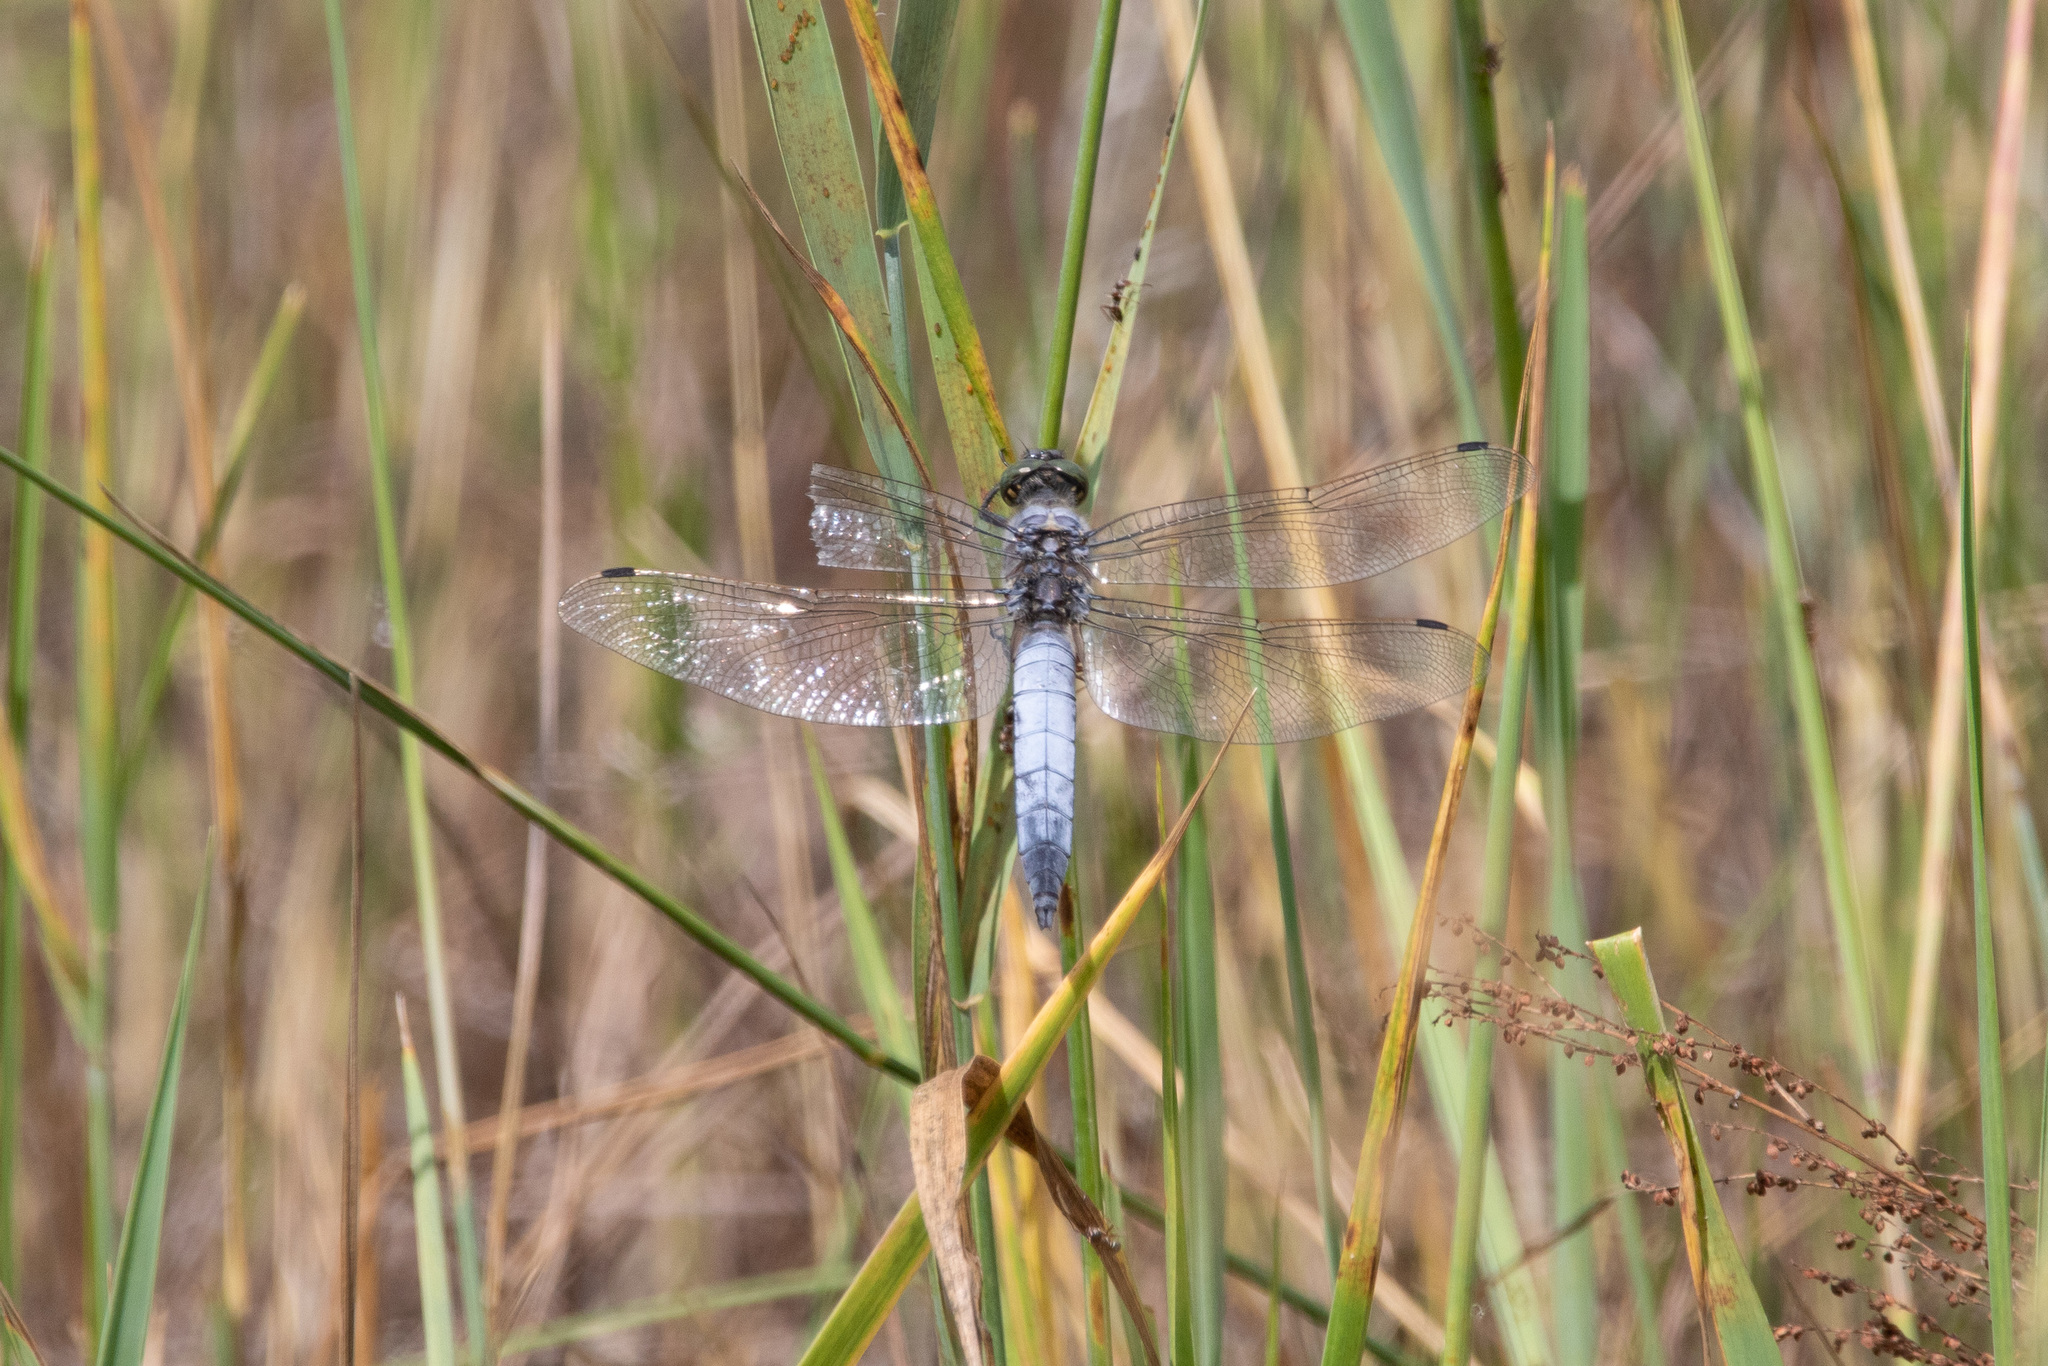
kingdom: Animalia
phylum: Arthropoda
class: Insecta
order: Odonata
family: Libellulidae
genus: Orthetrum
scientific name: Orthetrum cancellatum
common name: Black-tailed skimmer
